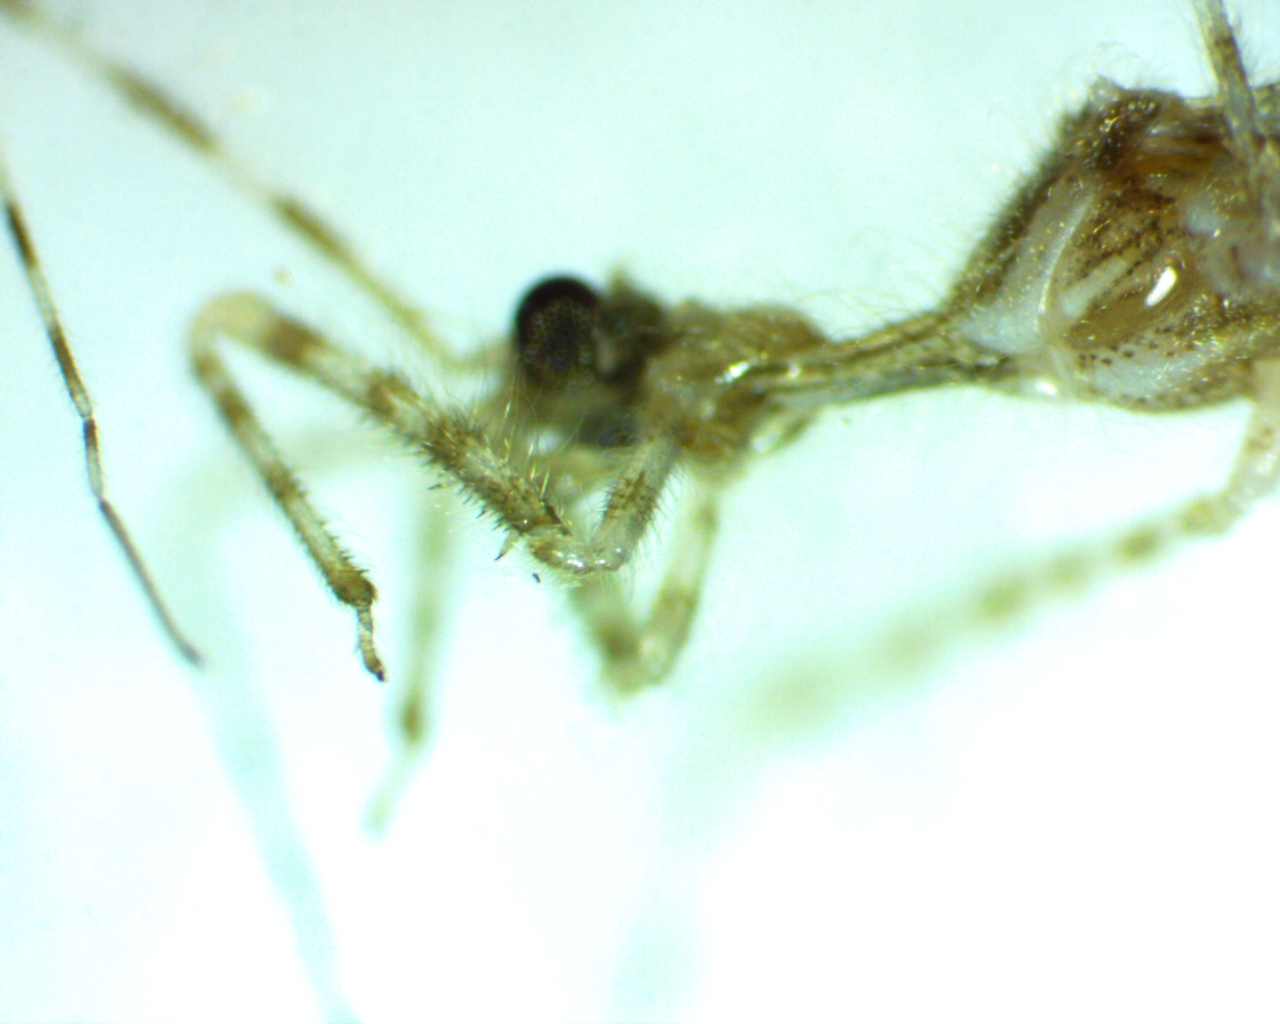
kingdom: Animalia
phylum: Arthropoda
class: Insecta
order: Hemiptera
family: Reduviidae
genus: Stenolemus
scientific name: Stenolemus lanipes
